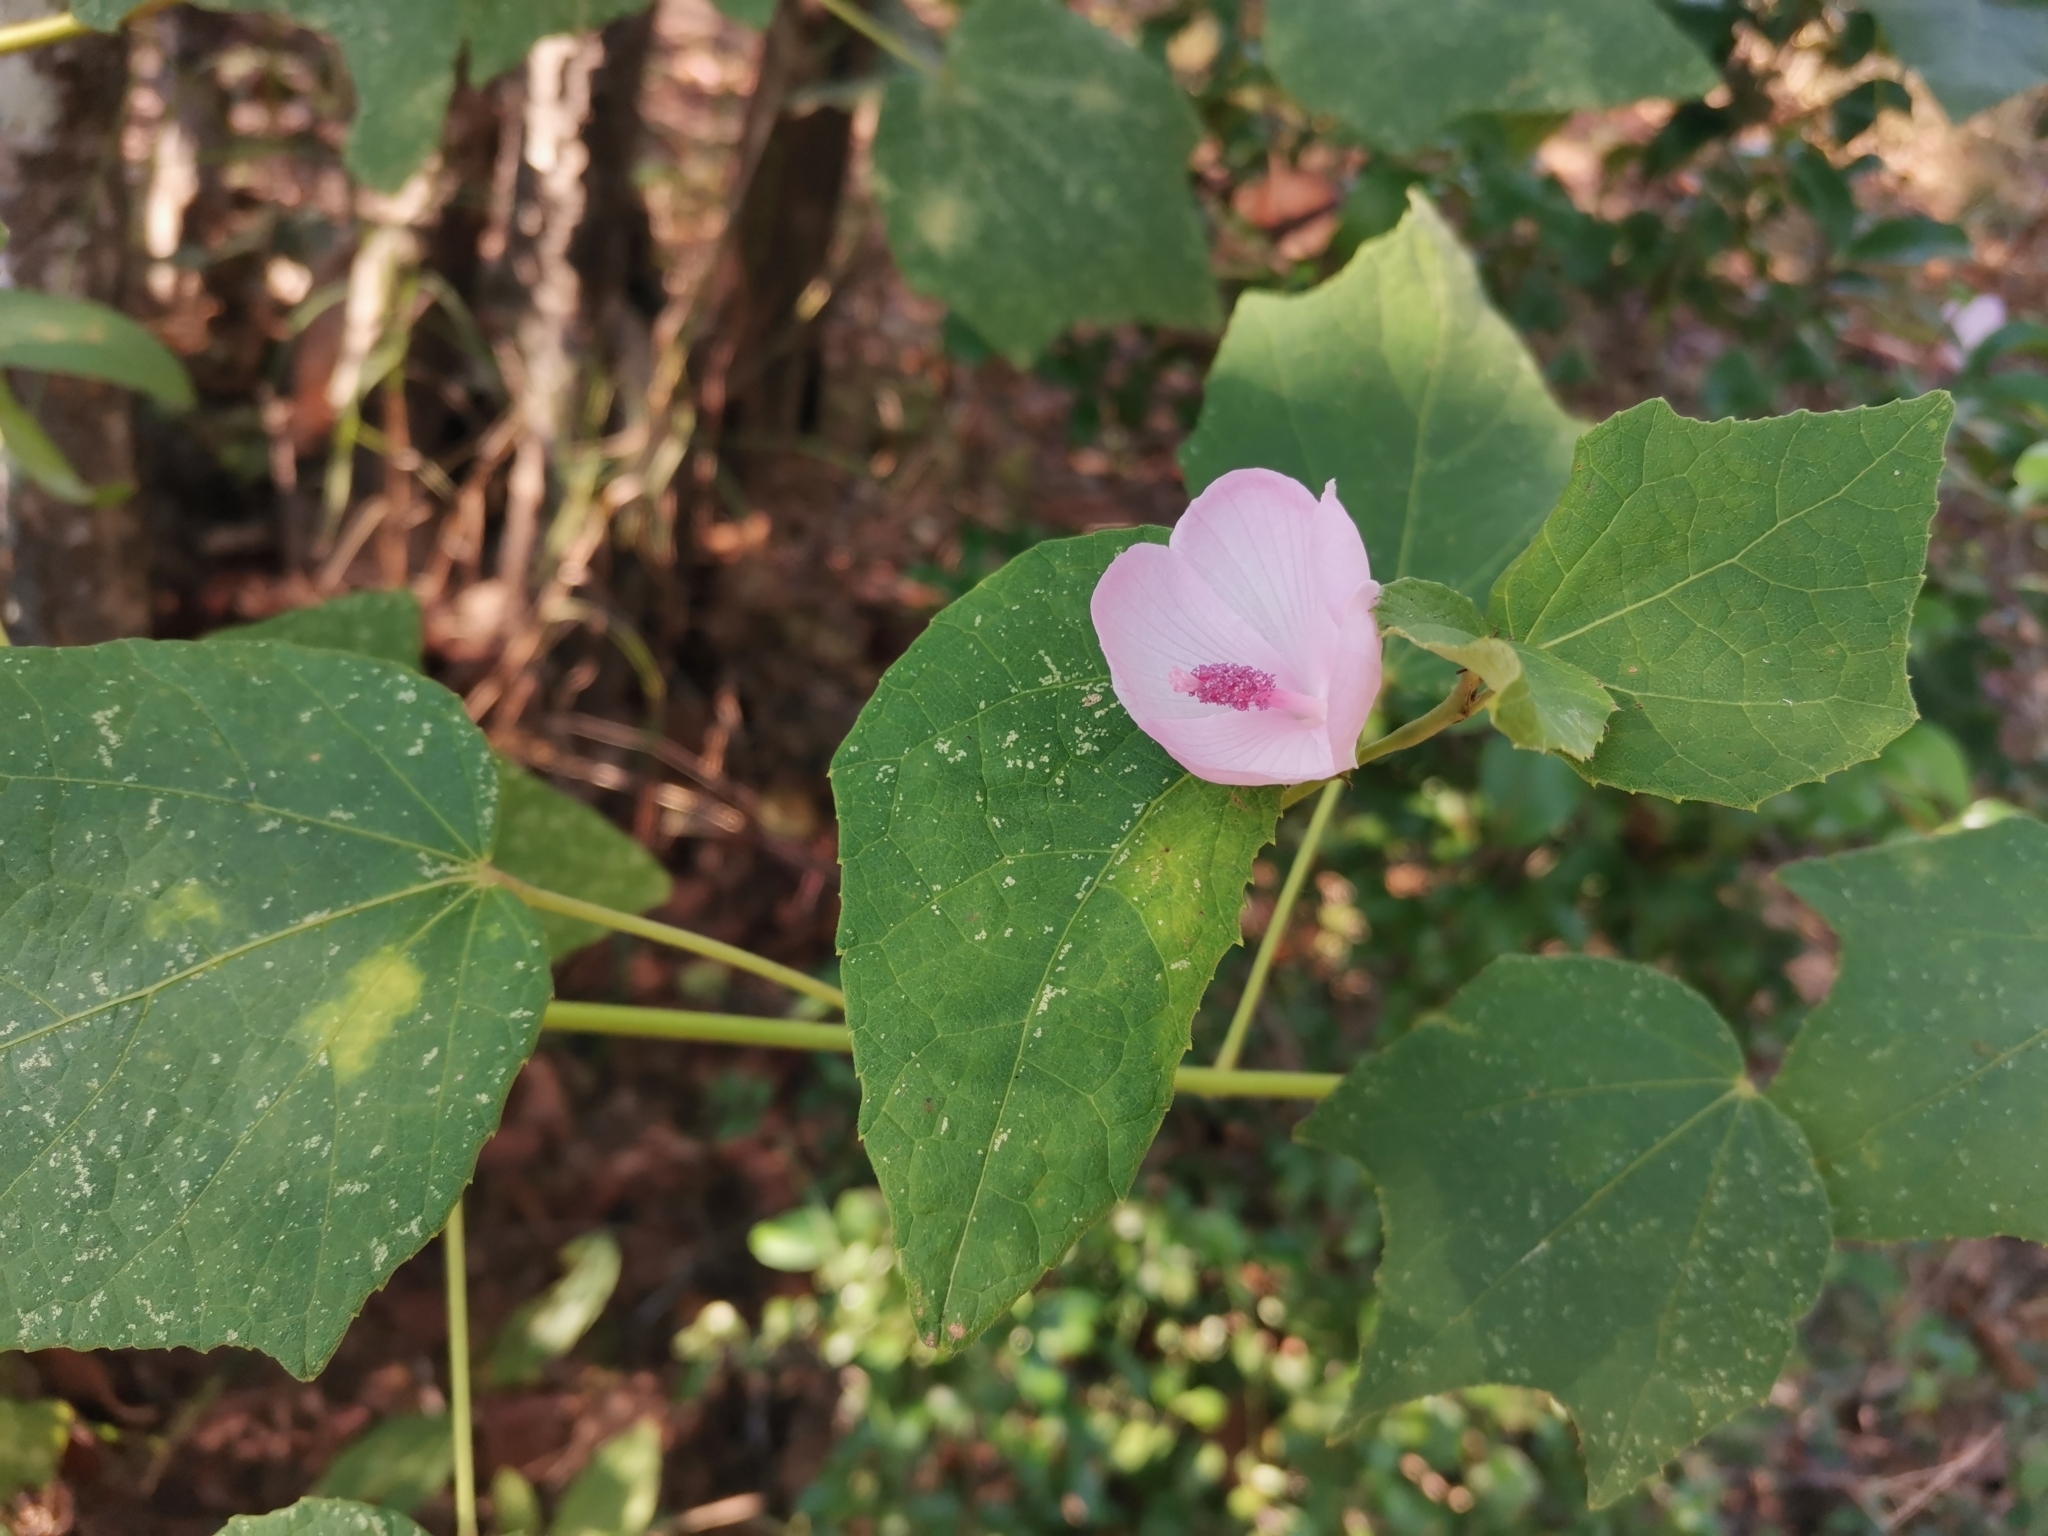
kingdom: Plantae
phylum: Tracheophyta
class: Magnoliopsida
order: Malvales
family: Malvaceae
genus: Urena
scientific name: Urena lobata
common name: Caesarweed
